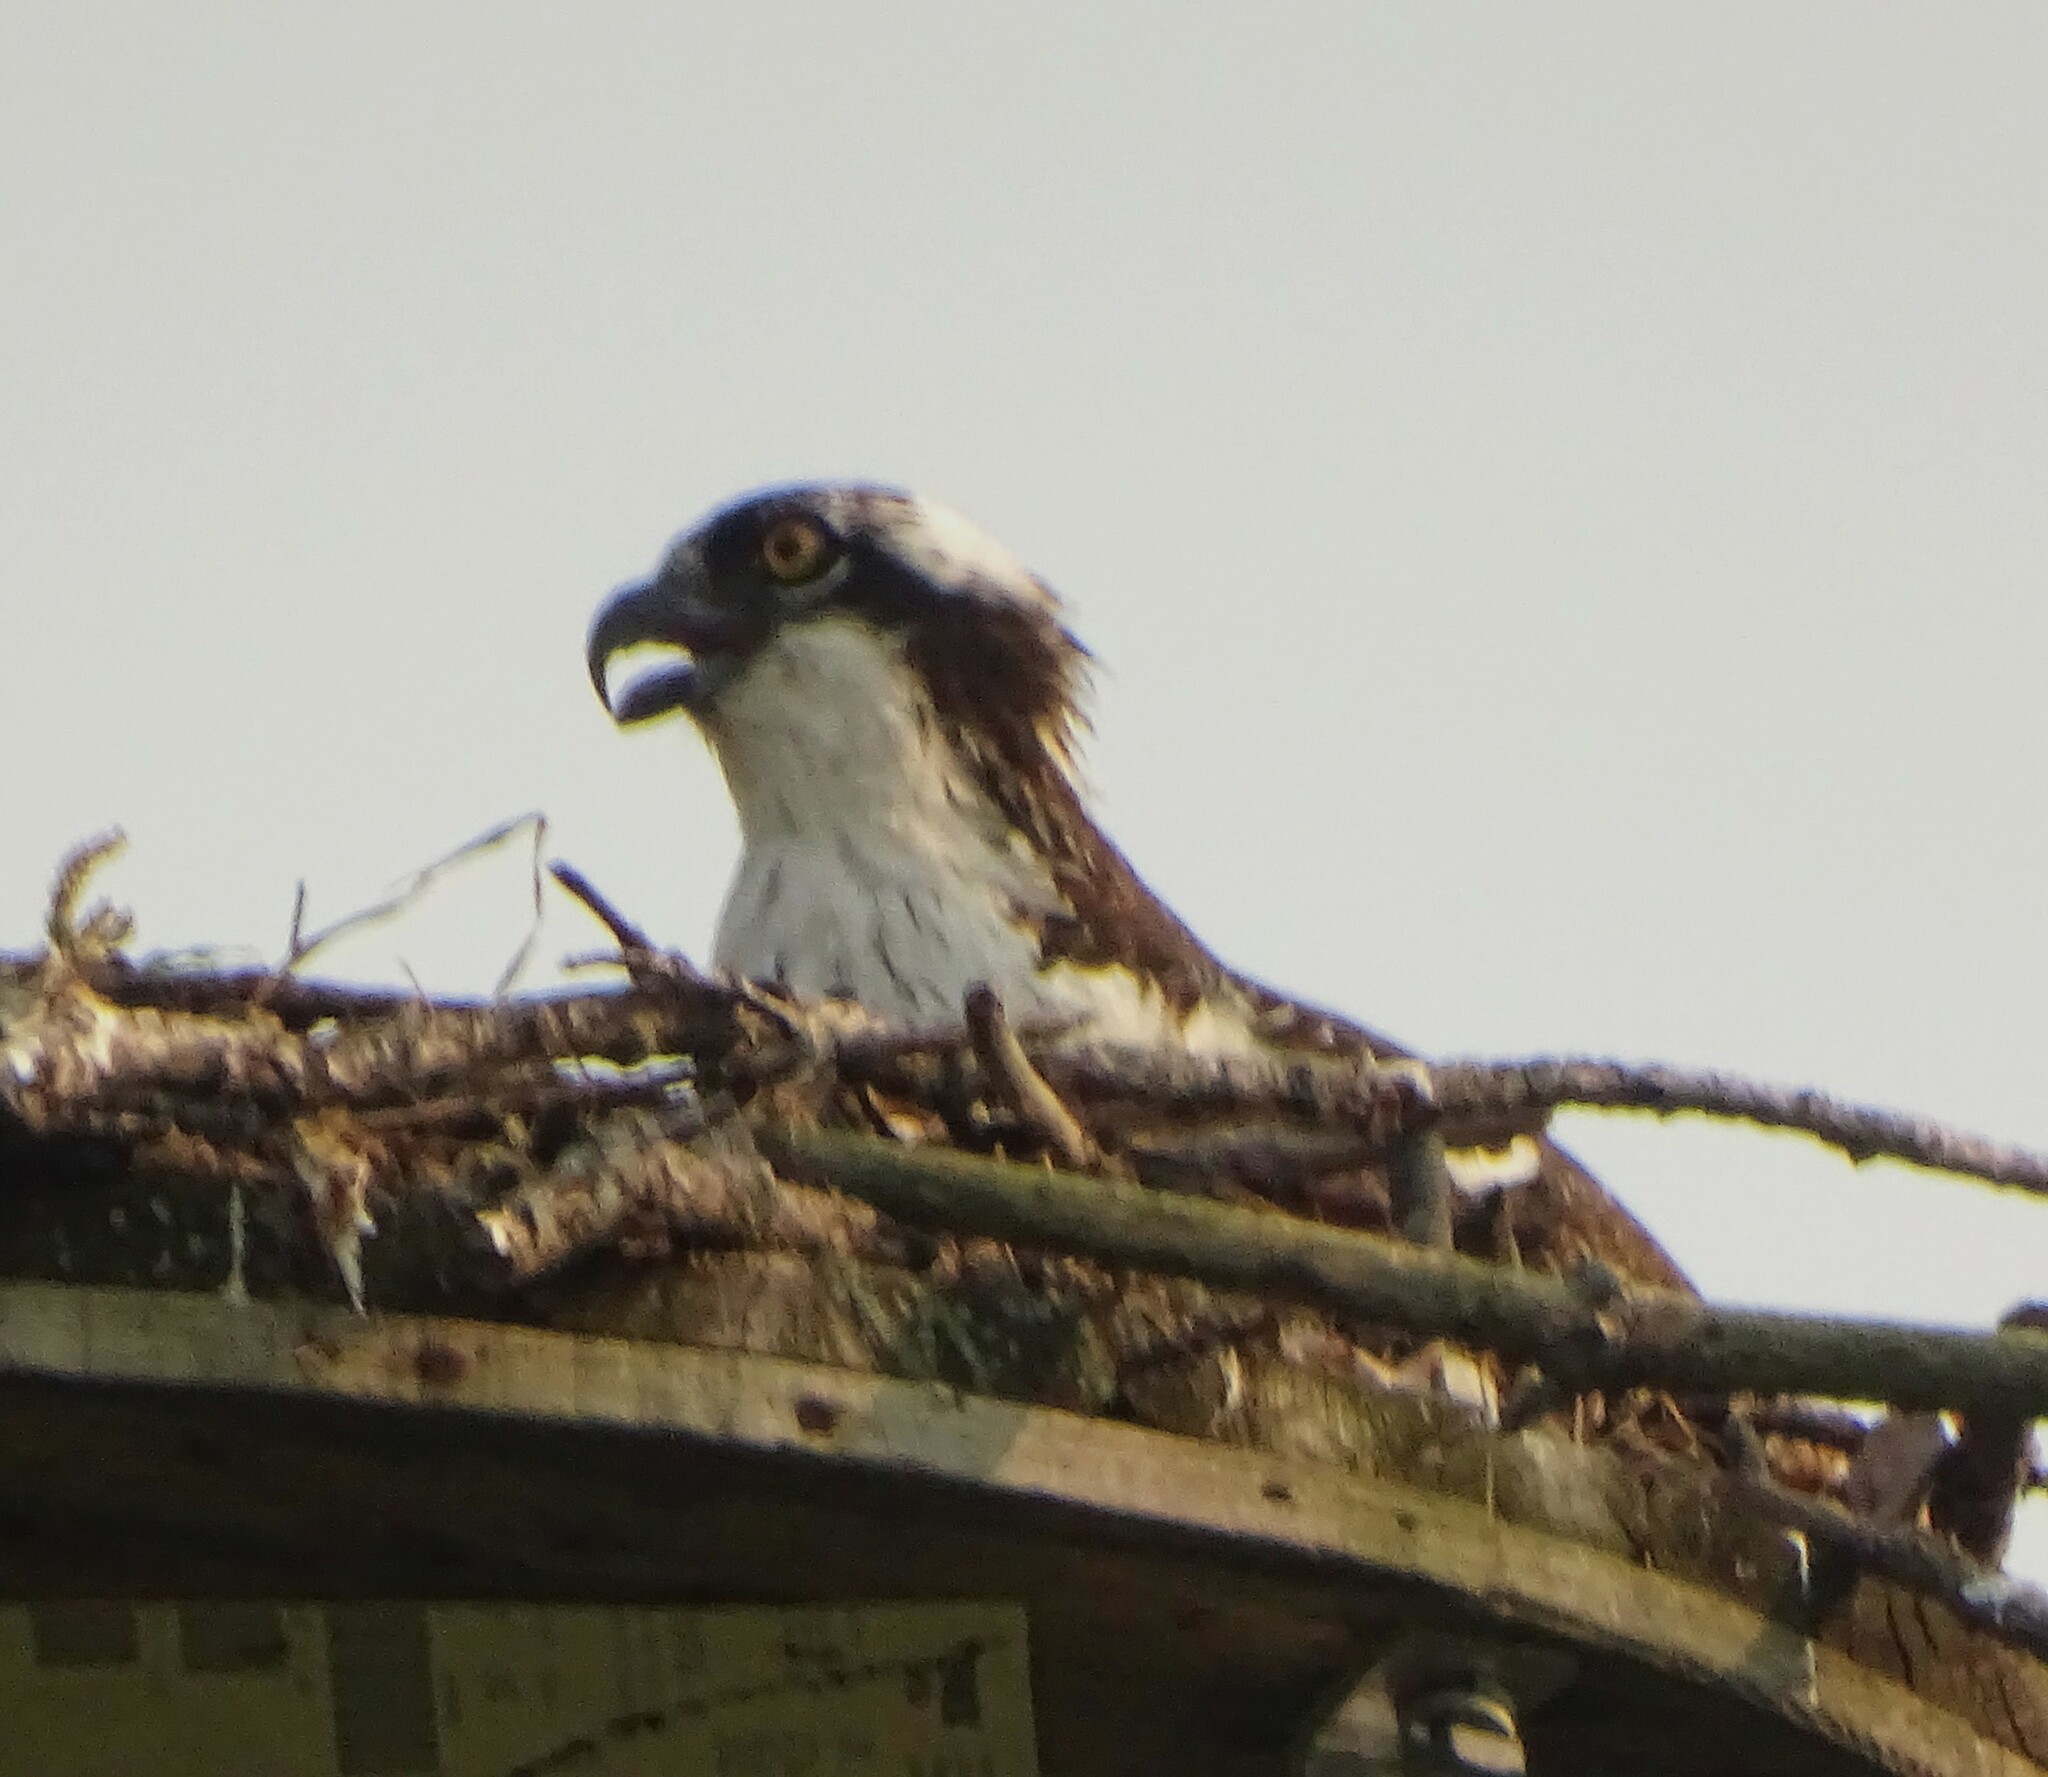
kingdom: Animalia
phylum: Chordata
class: Aves
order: Accipitriformes
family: Pandionidae
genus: Pandion
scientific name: Pandion haliaetus
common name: Osprey
